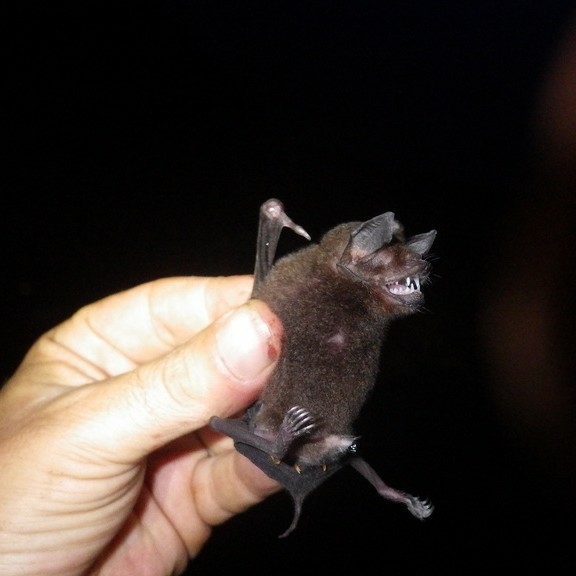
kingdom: Animalia
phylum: Chordata
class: Mammalia
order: Chiroptera
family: Mormoopidae
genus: Pteronotus
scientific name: Pteronotus
